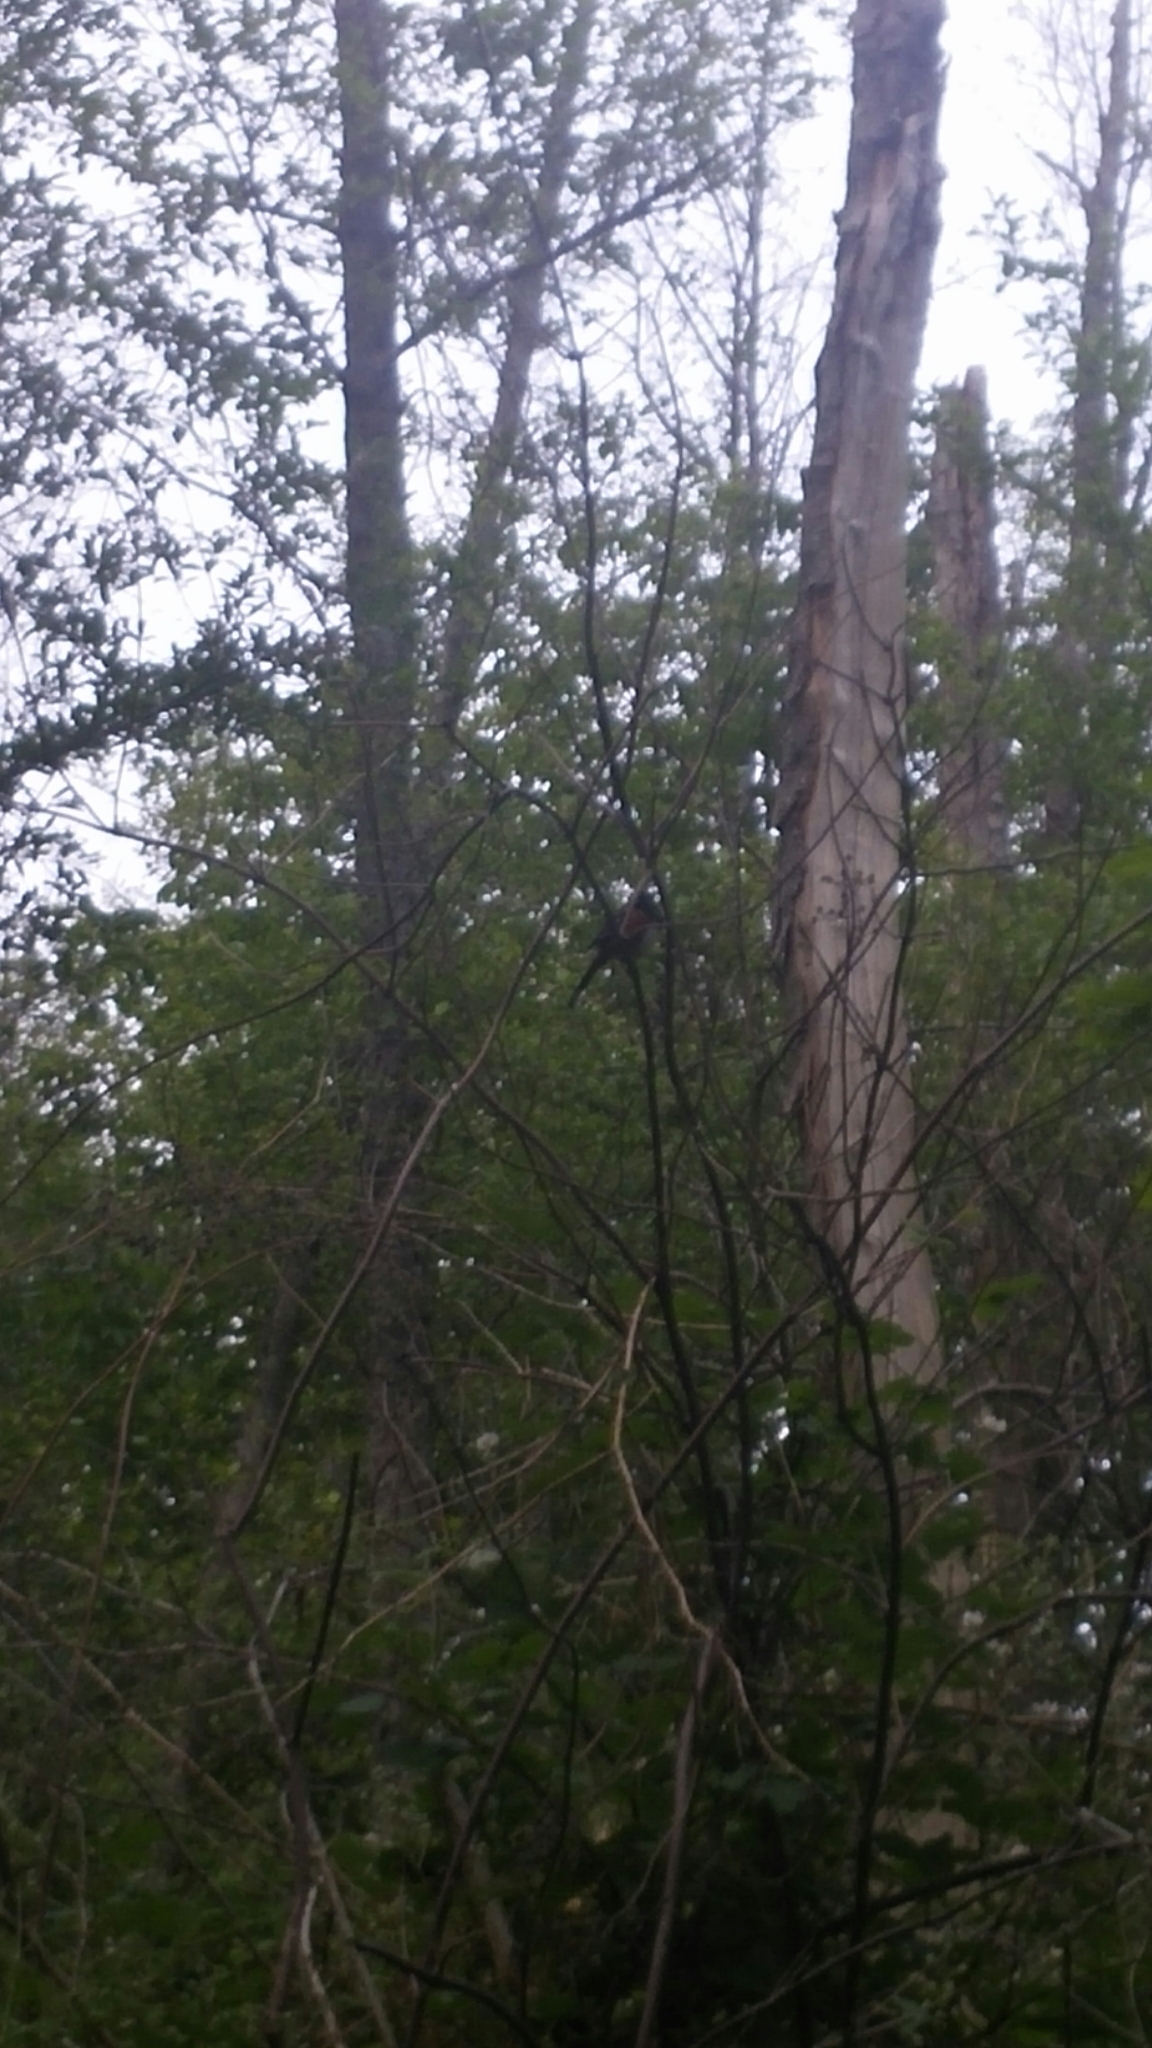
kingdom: Animalia
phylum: Chordata
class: Aves
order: Passeriformes
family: Passerellidae
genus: Pipilo
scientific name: Pipilo maculatus
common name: Spotted towhee
